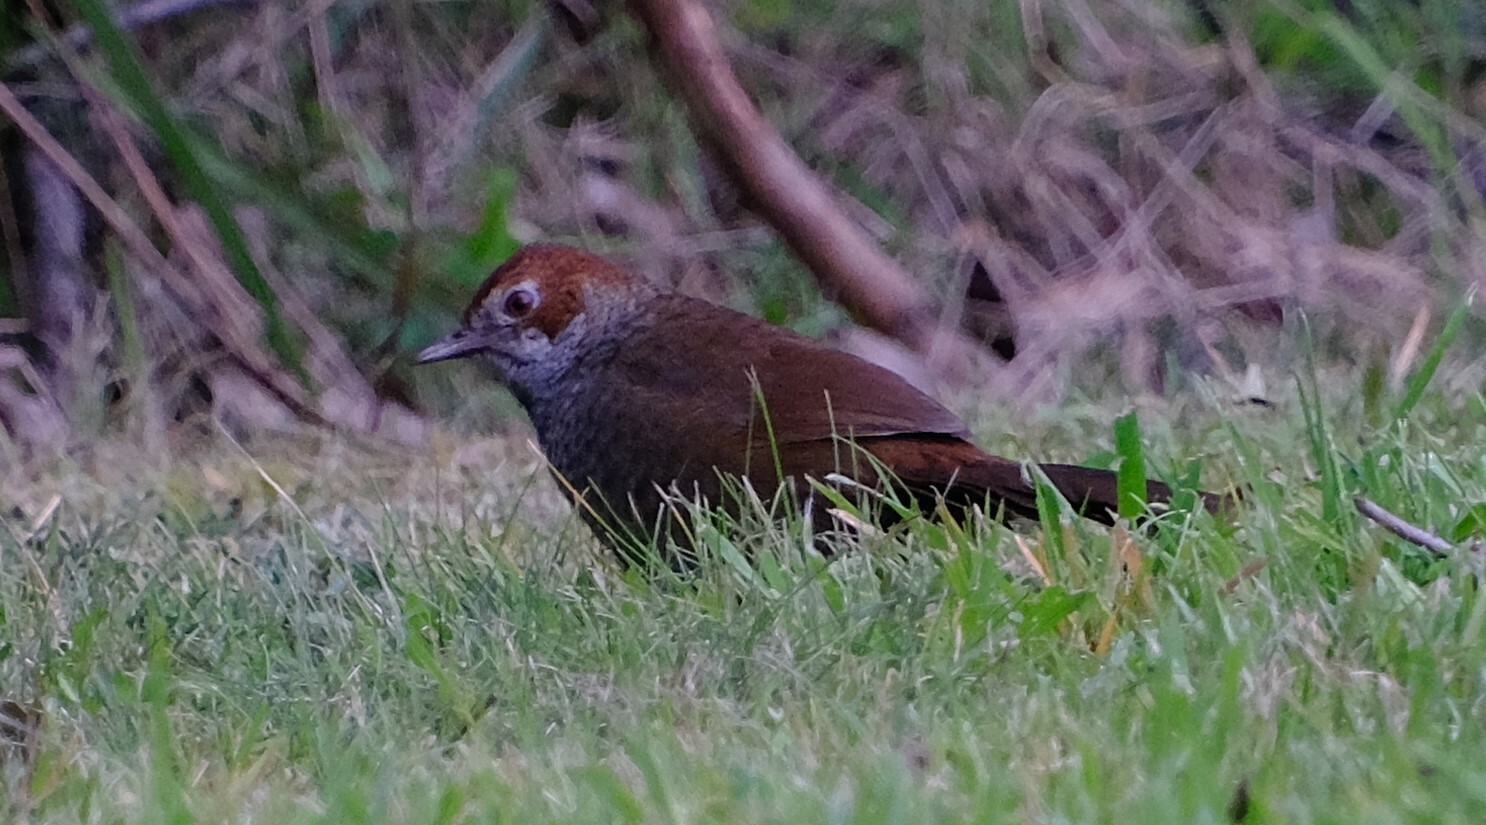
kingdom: Animalia
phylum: Chordata
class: Aves
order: Passeriformes
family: Dasyornithidae
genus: Dasyornis
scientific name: Dasyornis broadbenti
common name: Rufous bristlebird
